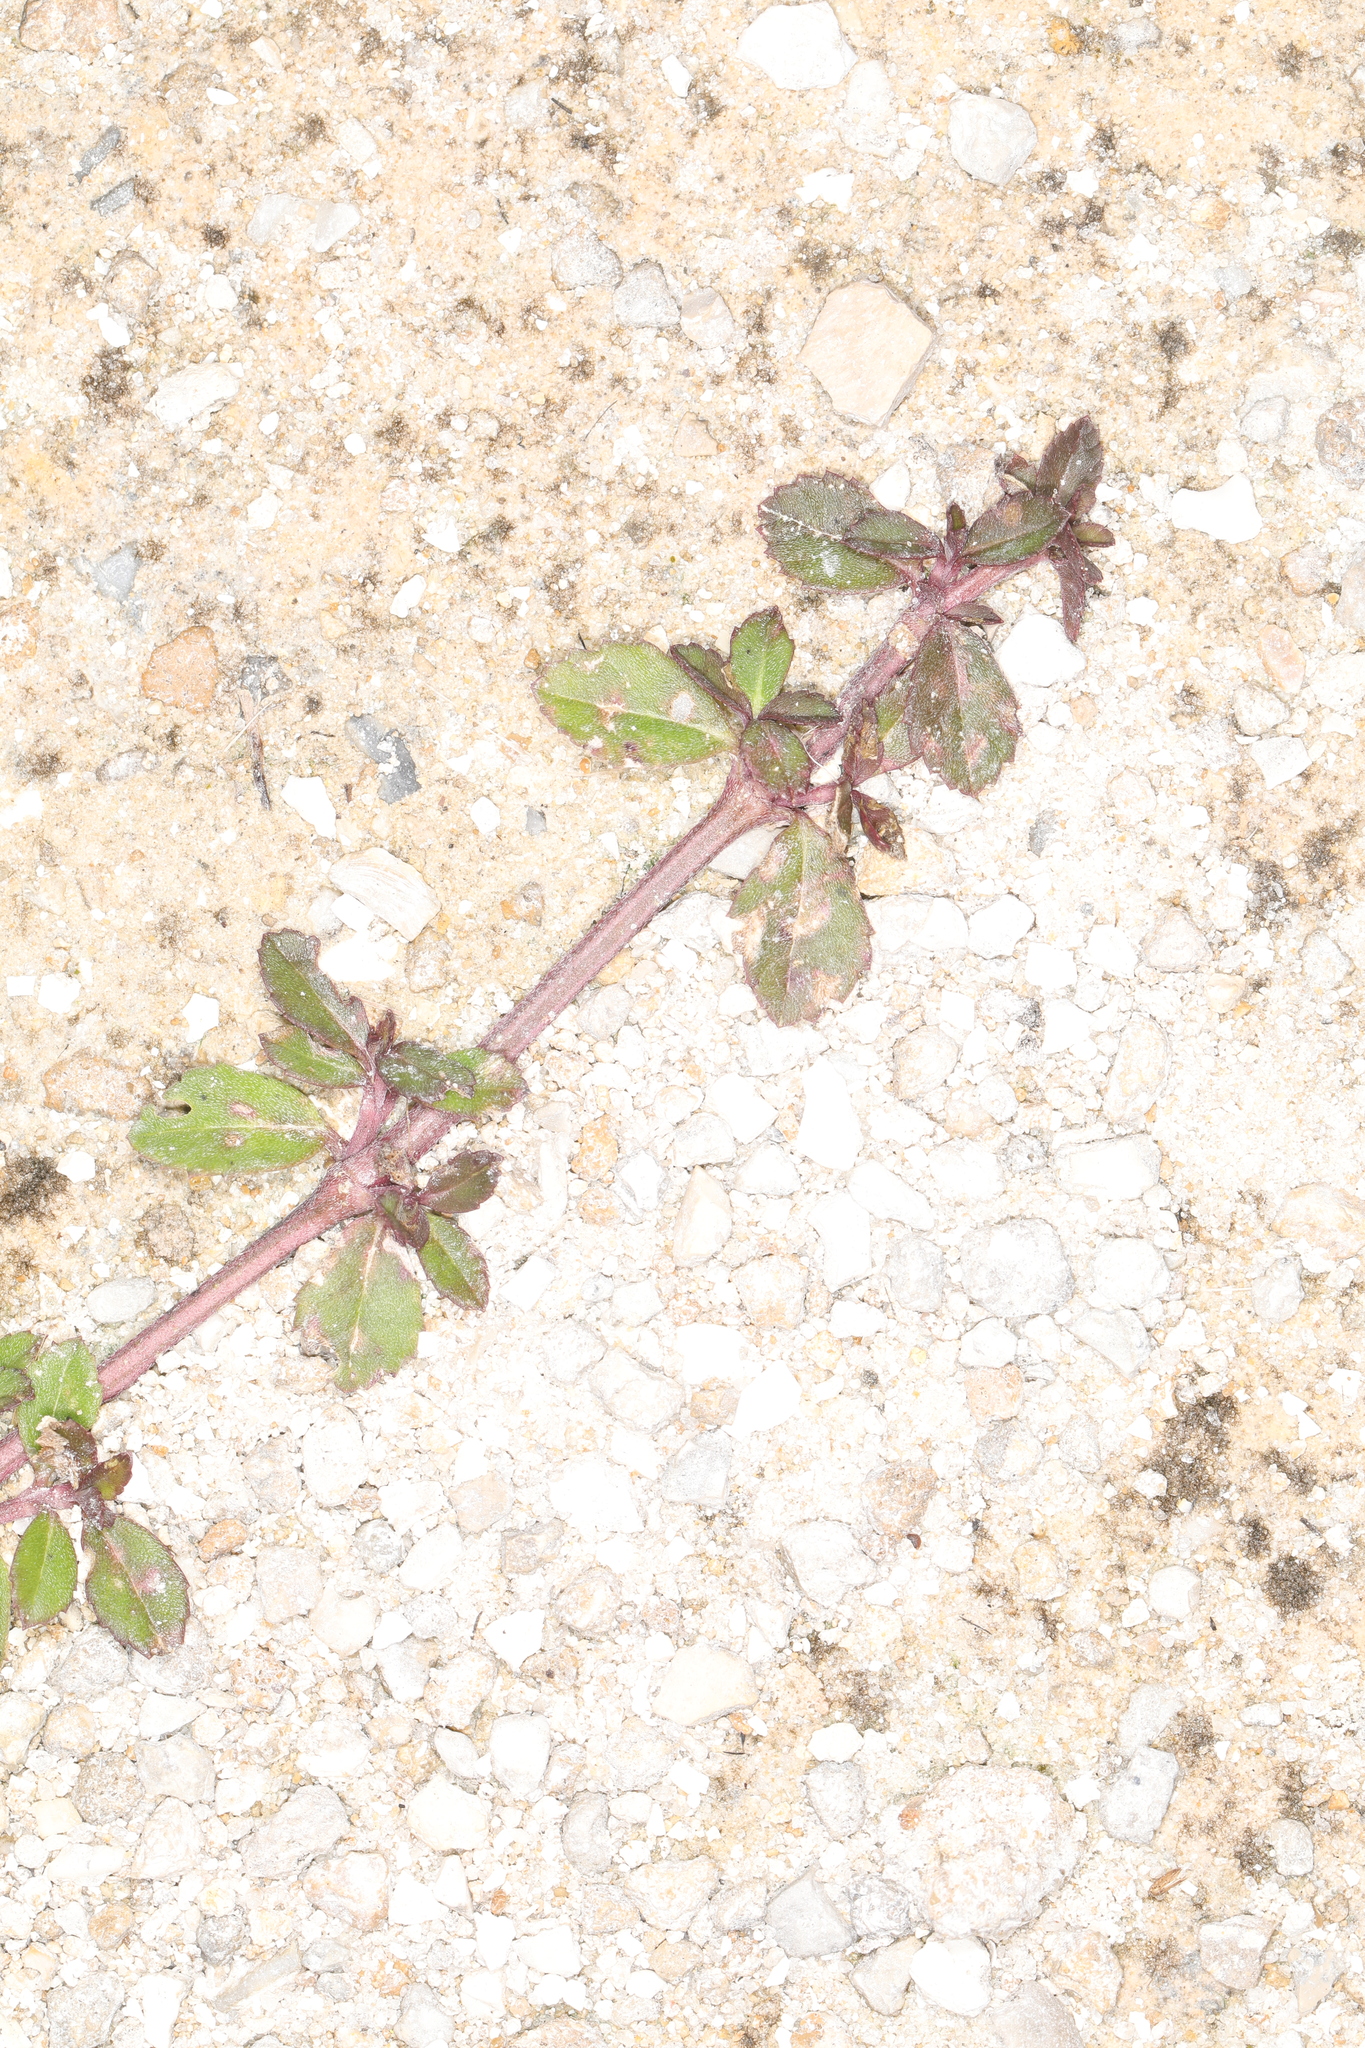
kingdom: Plantae
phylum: Tracheophyta
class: Magnoliopsida
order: Lamiales
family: Verbenaceae
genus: Phyla
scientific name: Phyla nodiflora
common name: Frogfruit
